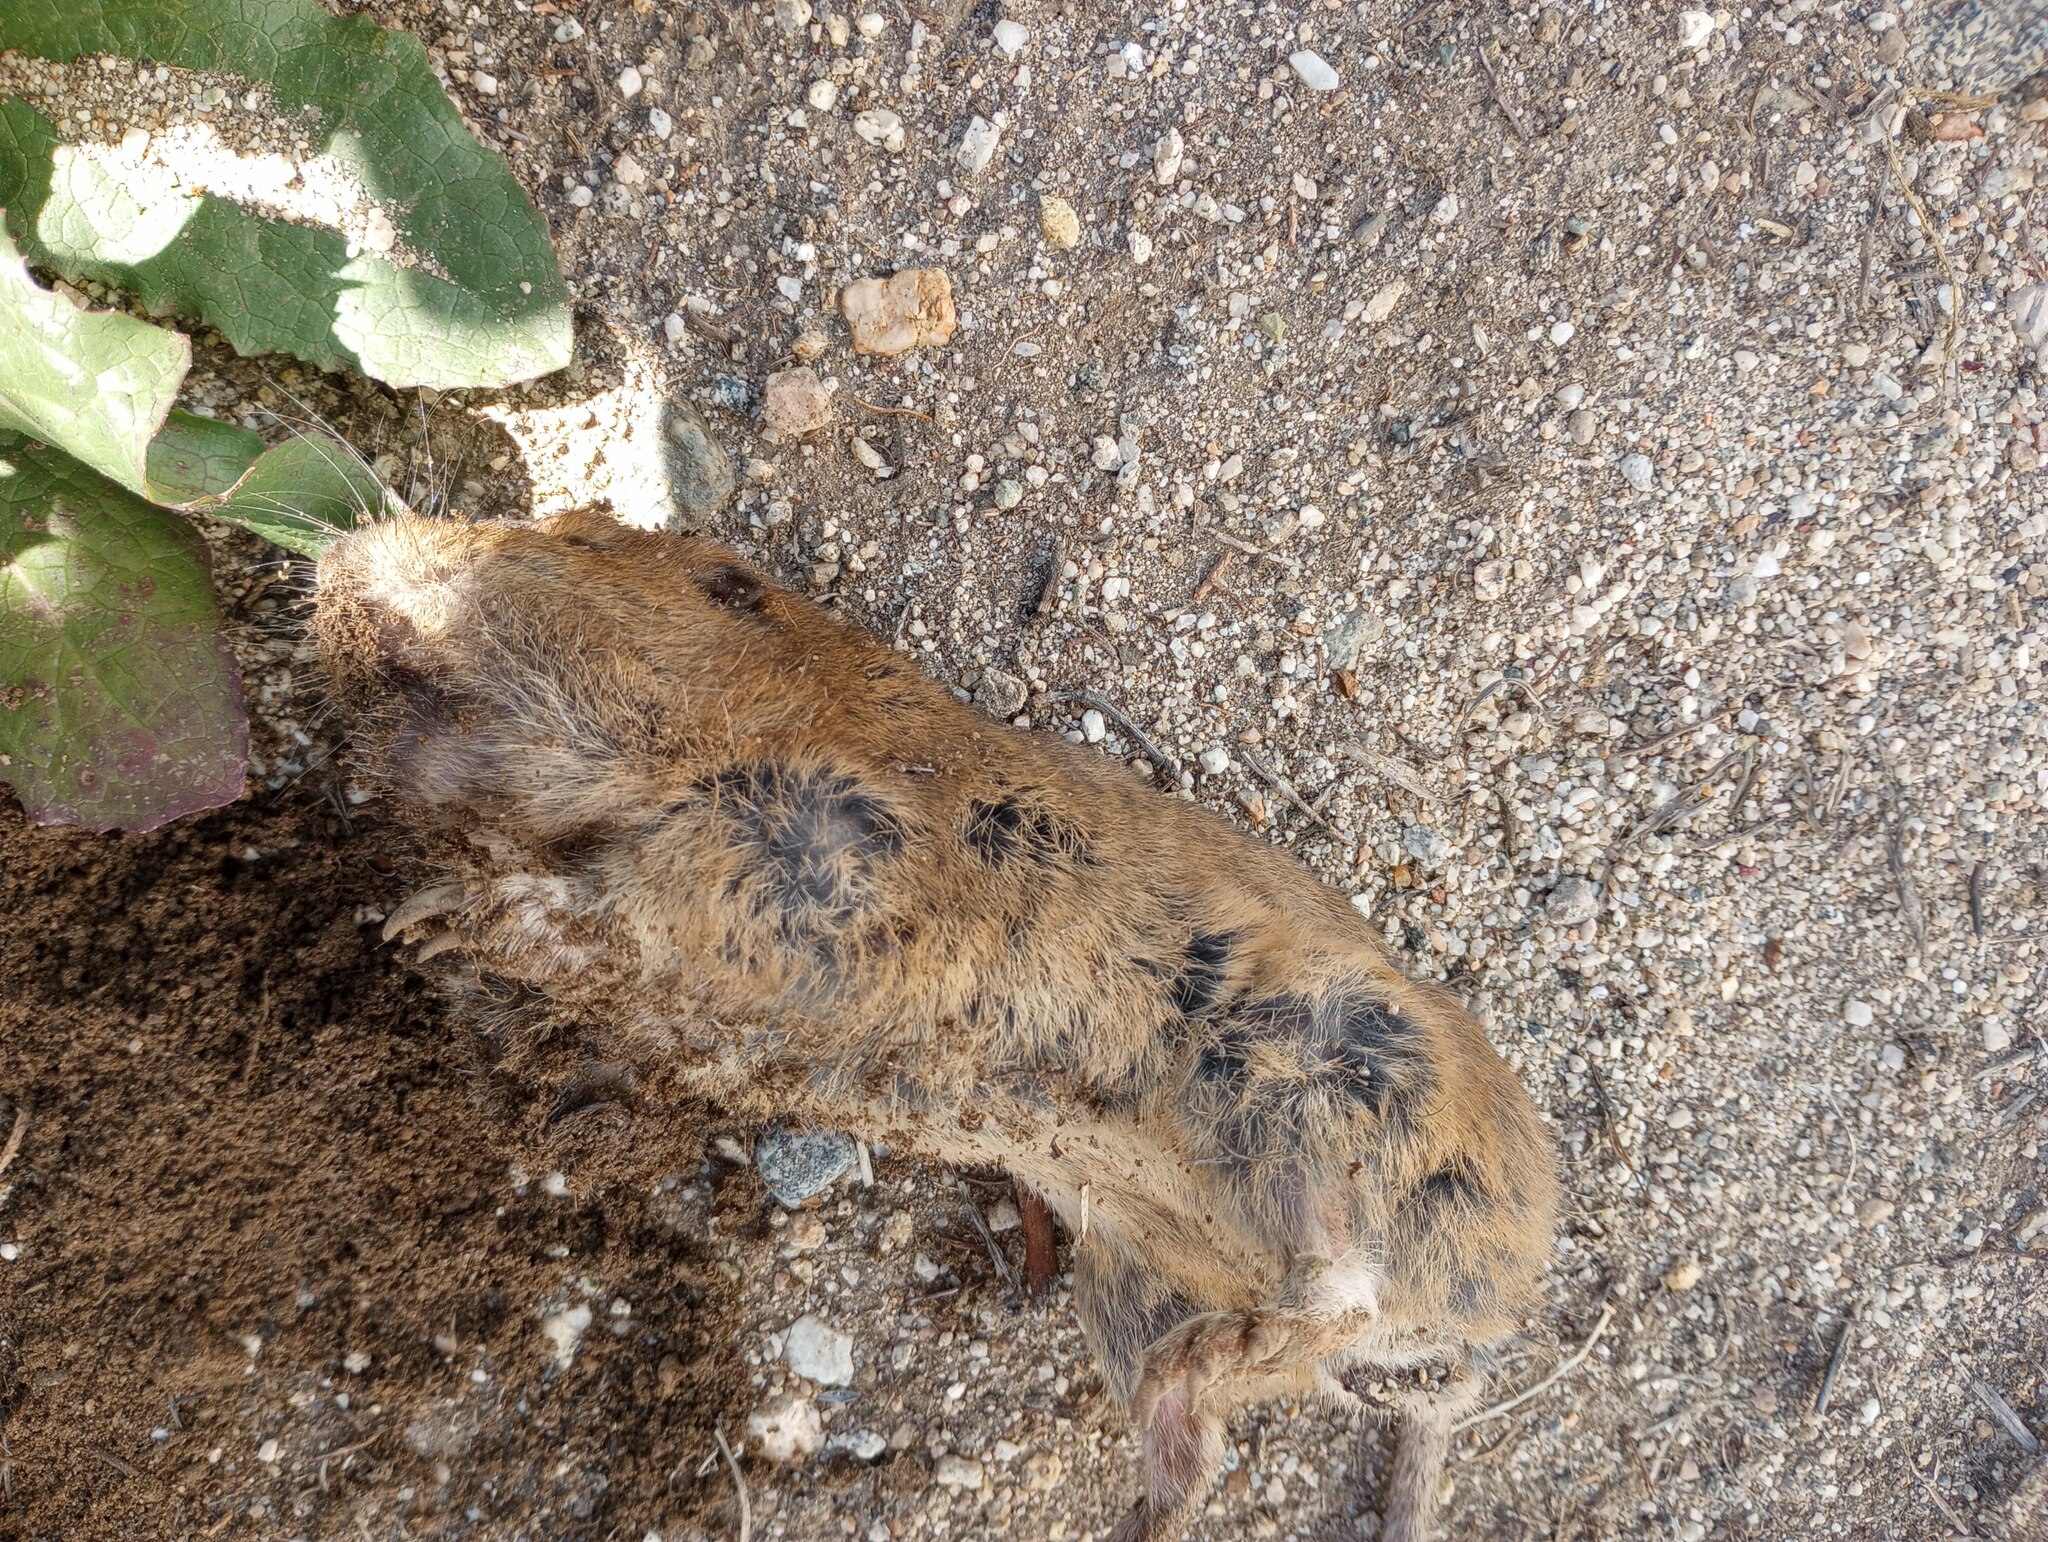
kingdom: Animalia
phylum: Chordata
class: Mammalia
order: Rodentia
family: Geomyidae
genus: Thomomys
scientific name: Thomomys bottae
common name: Botta's pocket gopher
